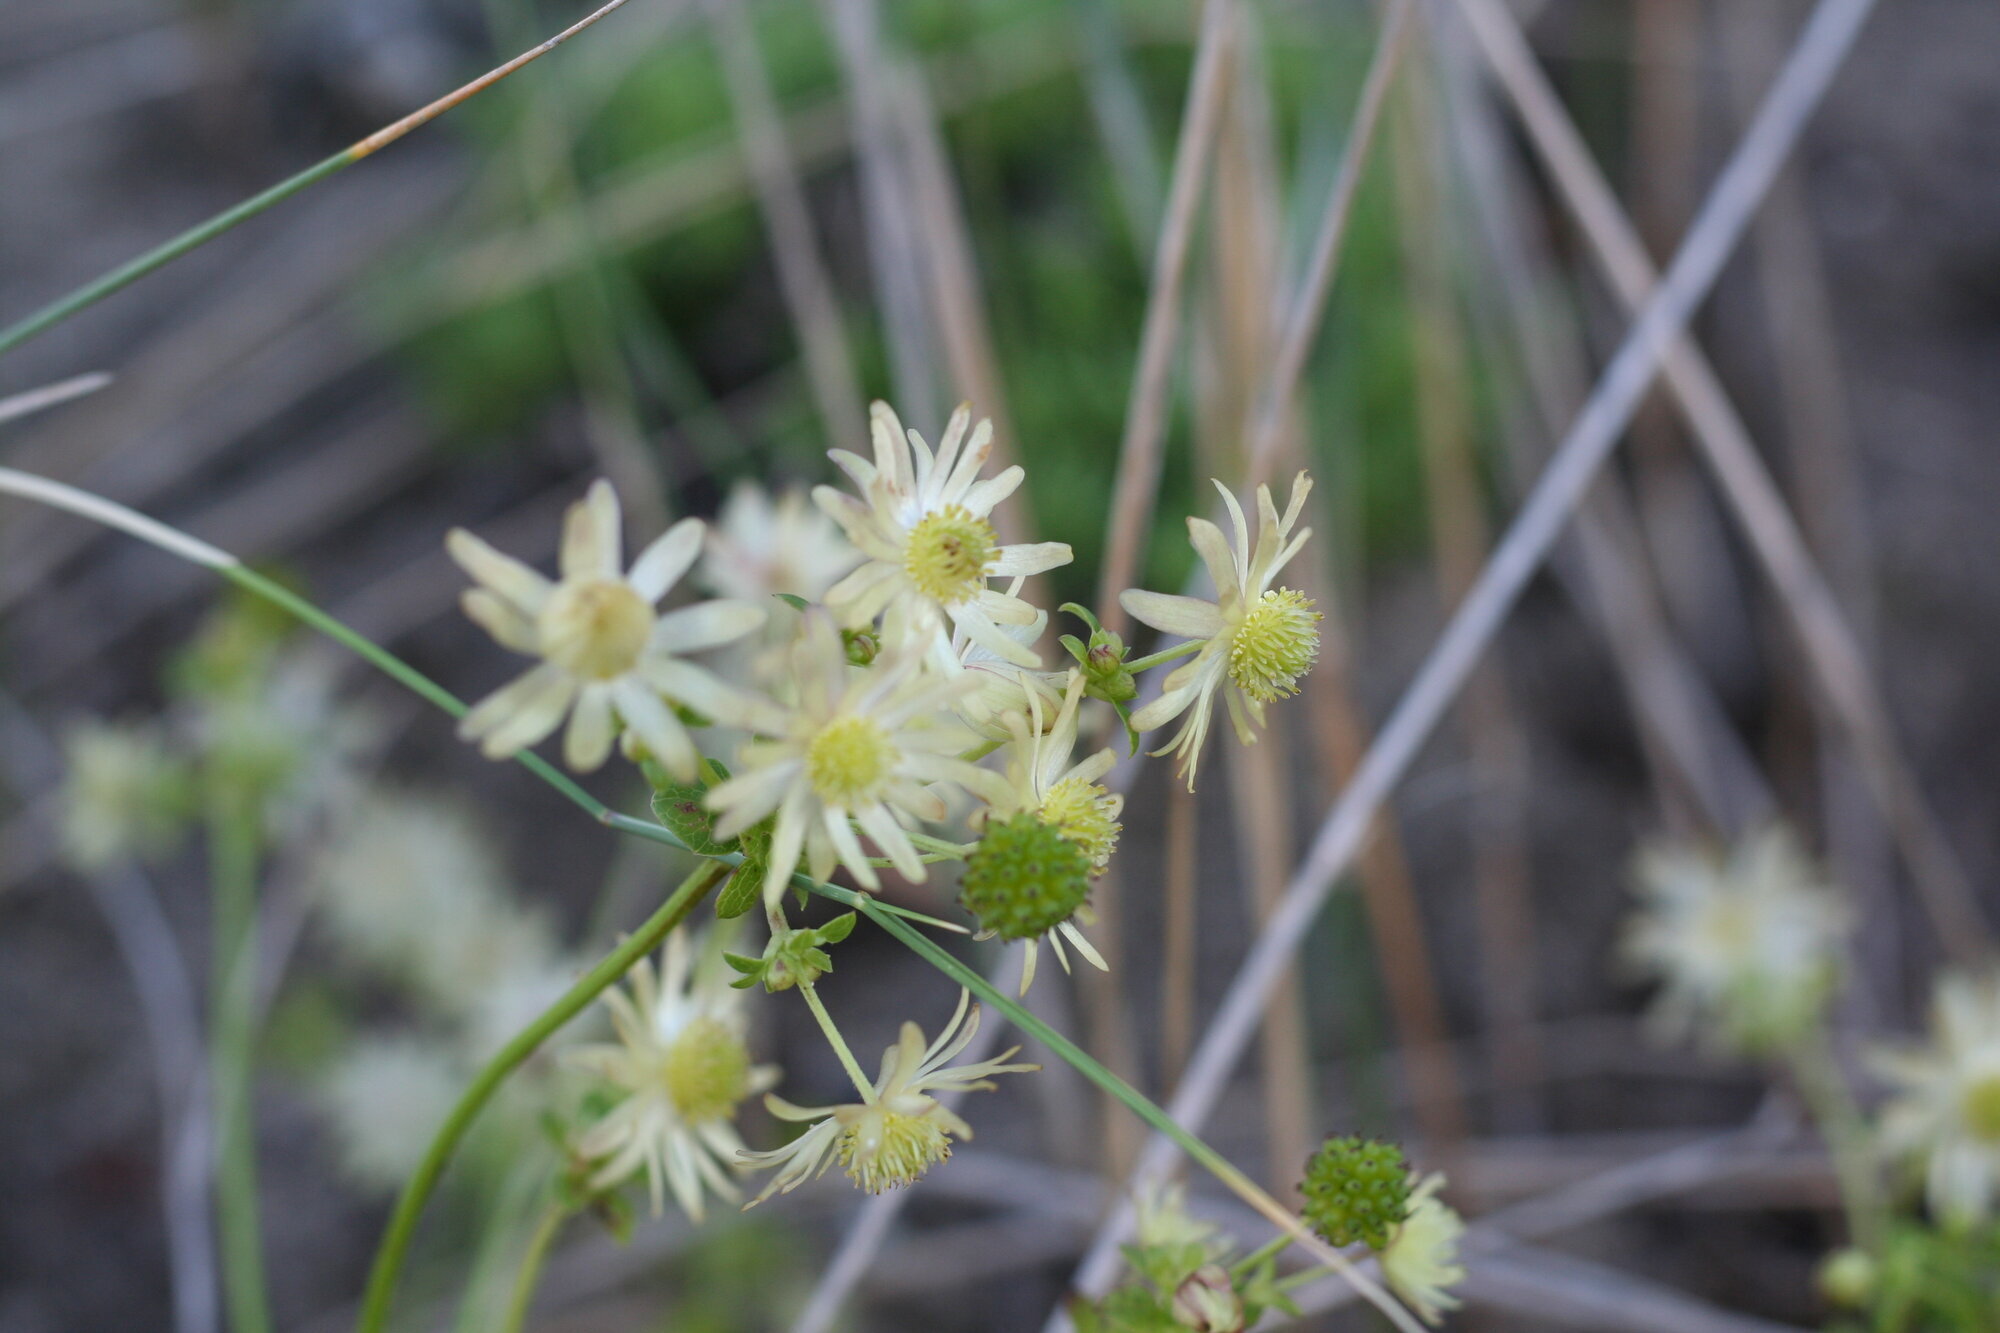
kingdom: Plantae
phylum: Tracheophyta
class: Magnoliopsida
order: Ranunculales
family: Ranunculaceae
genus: Knowltonia
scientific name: Knowltonia vesicatoria
